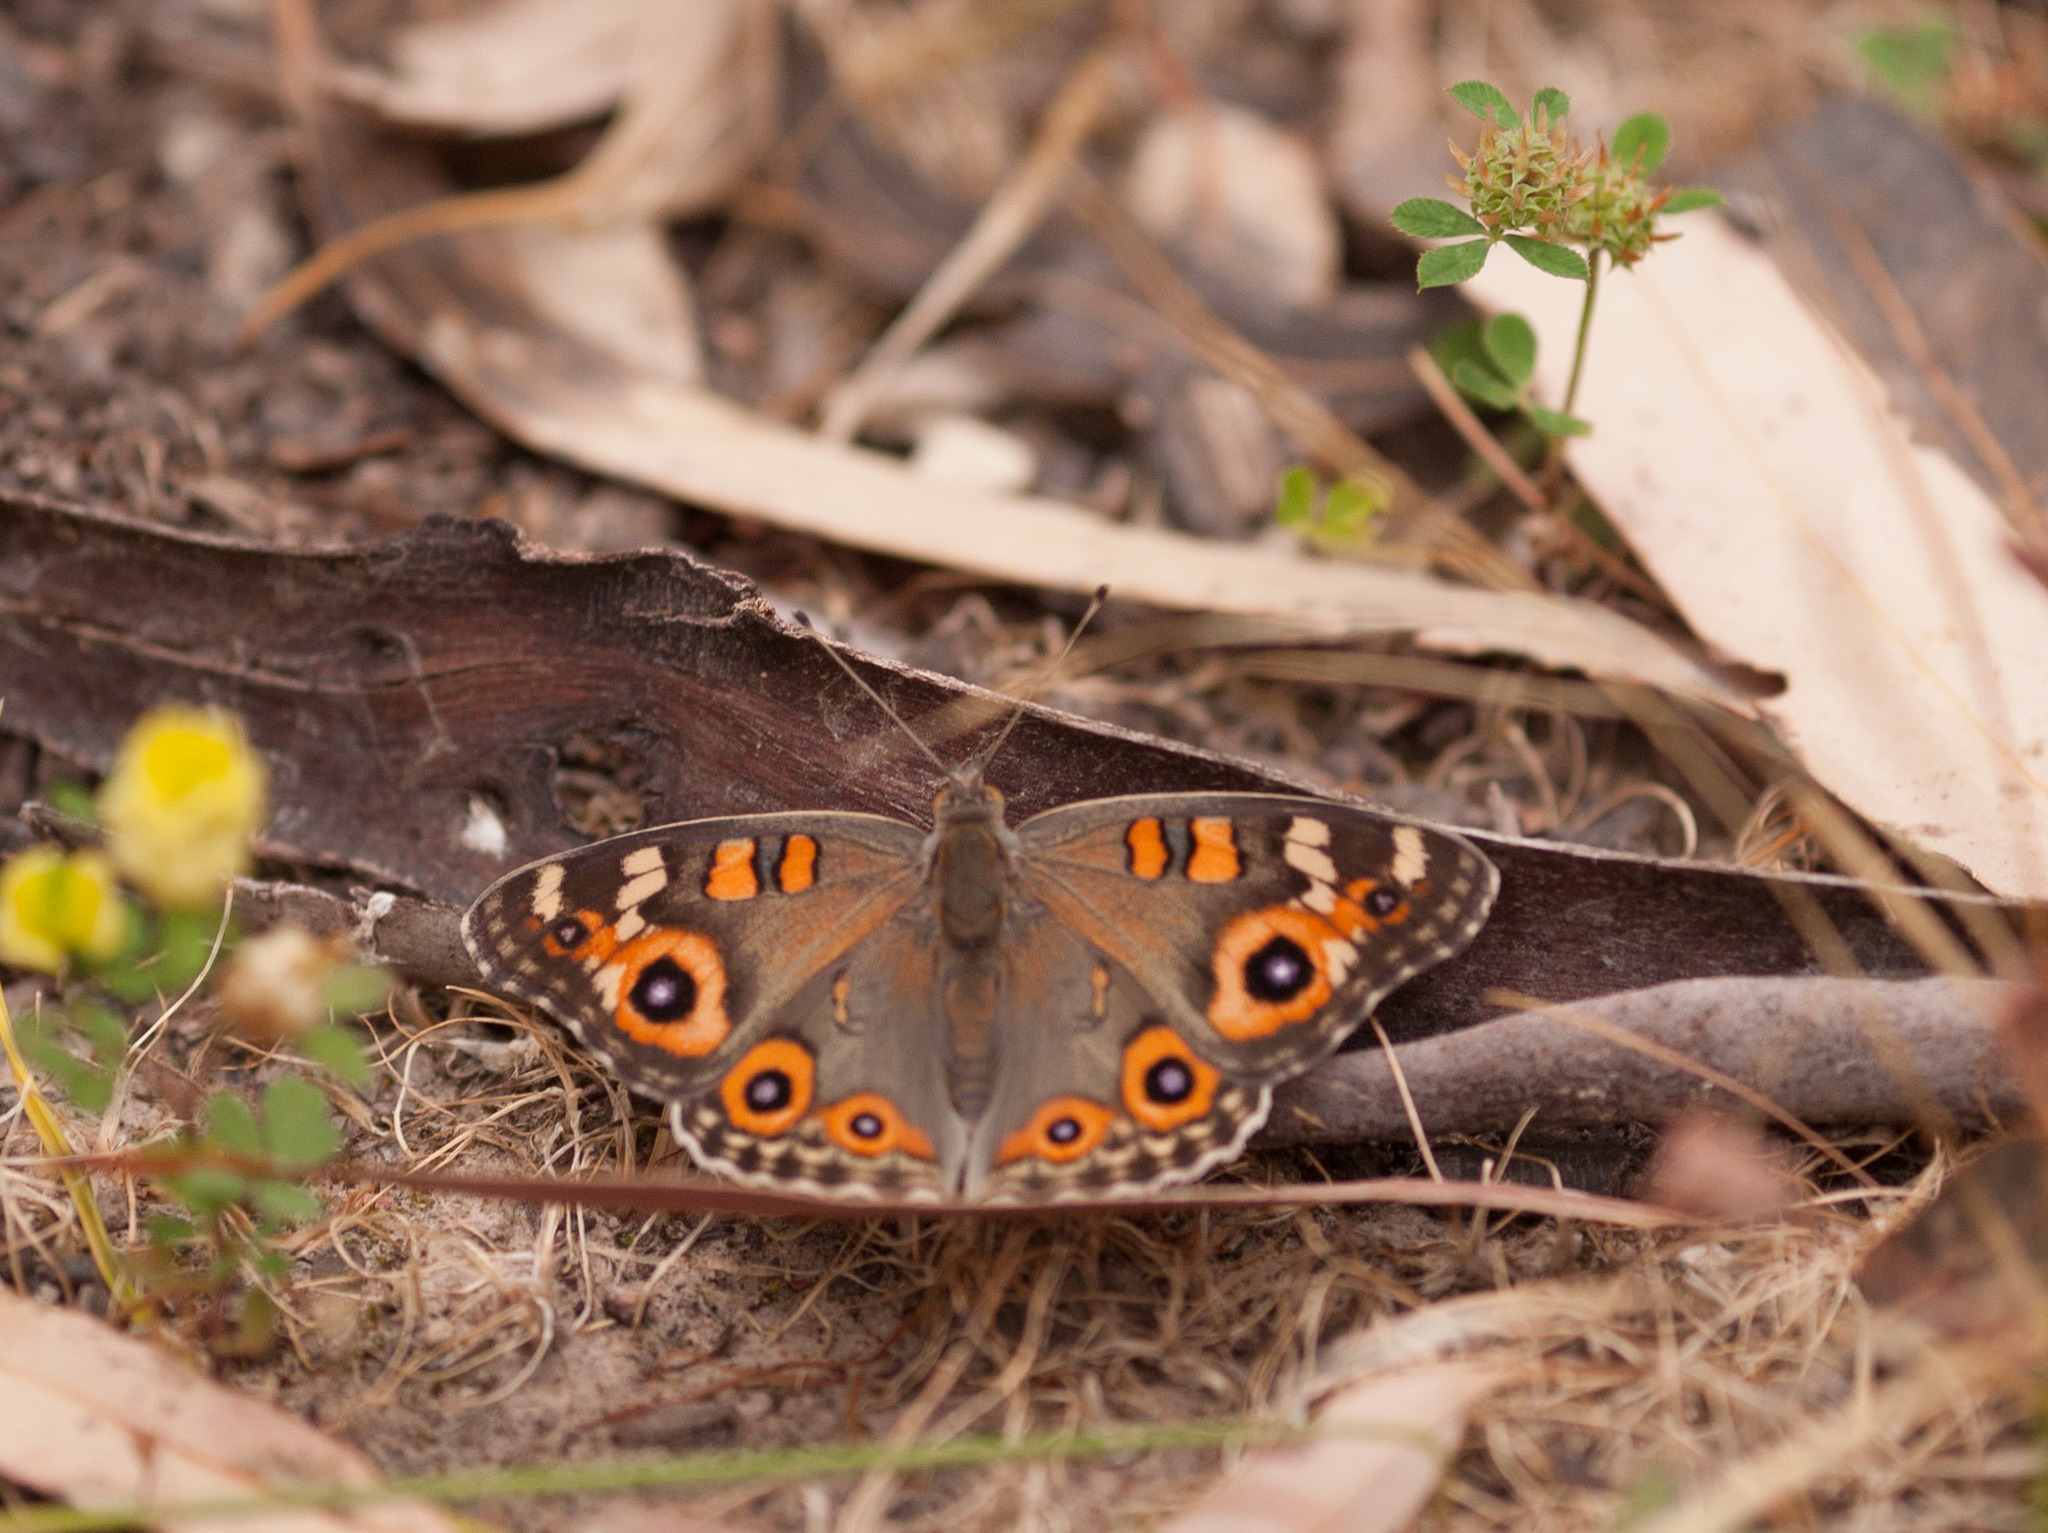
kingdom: Animalia
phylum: Arthropoda
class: Insecta
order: Lepidoptera
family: Nymphalidae
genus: Junonia
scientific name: Junonia villida
